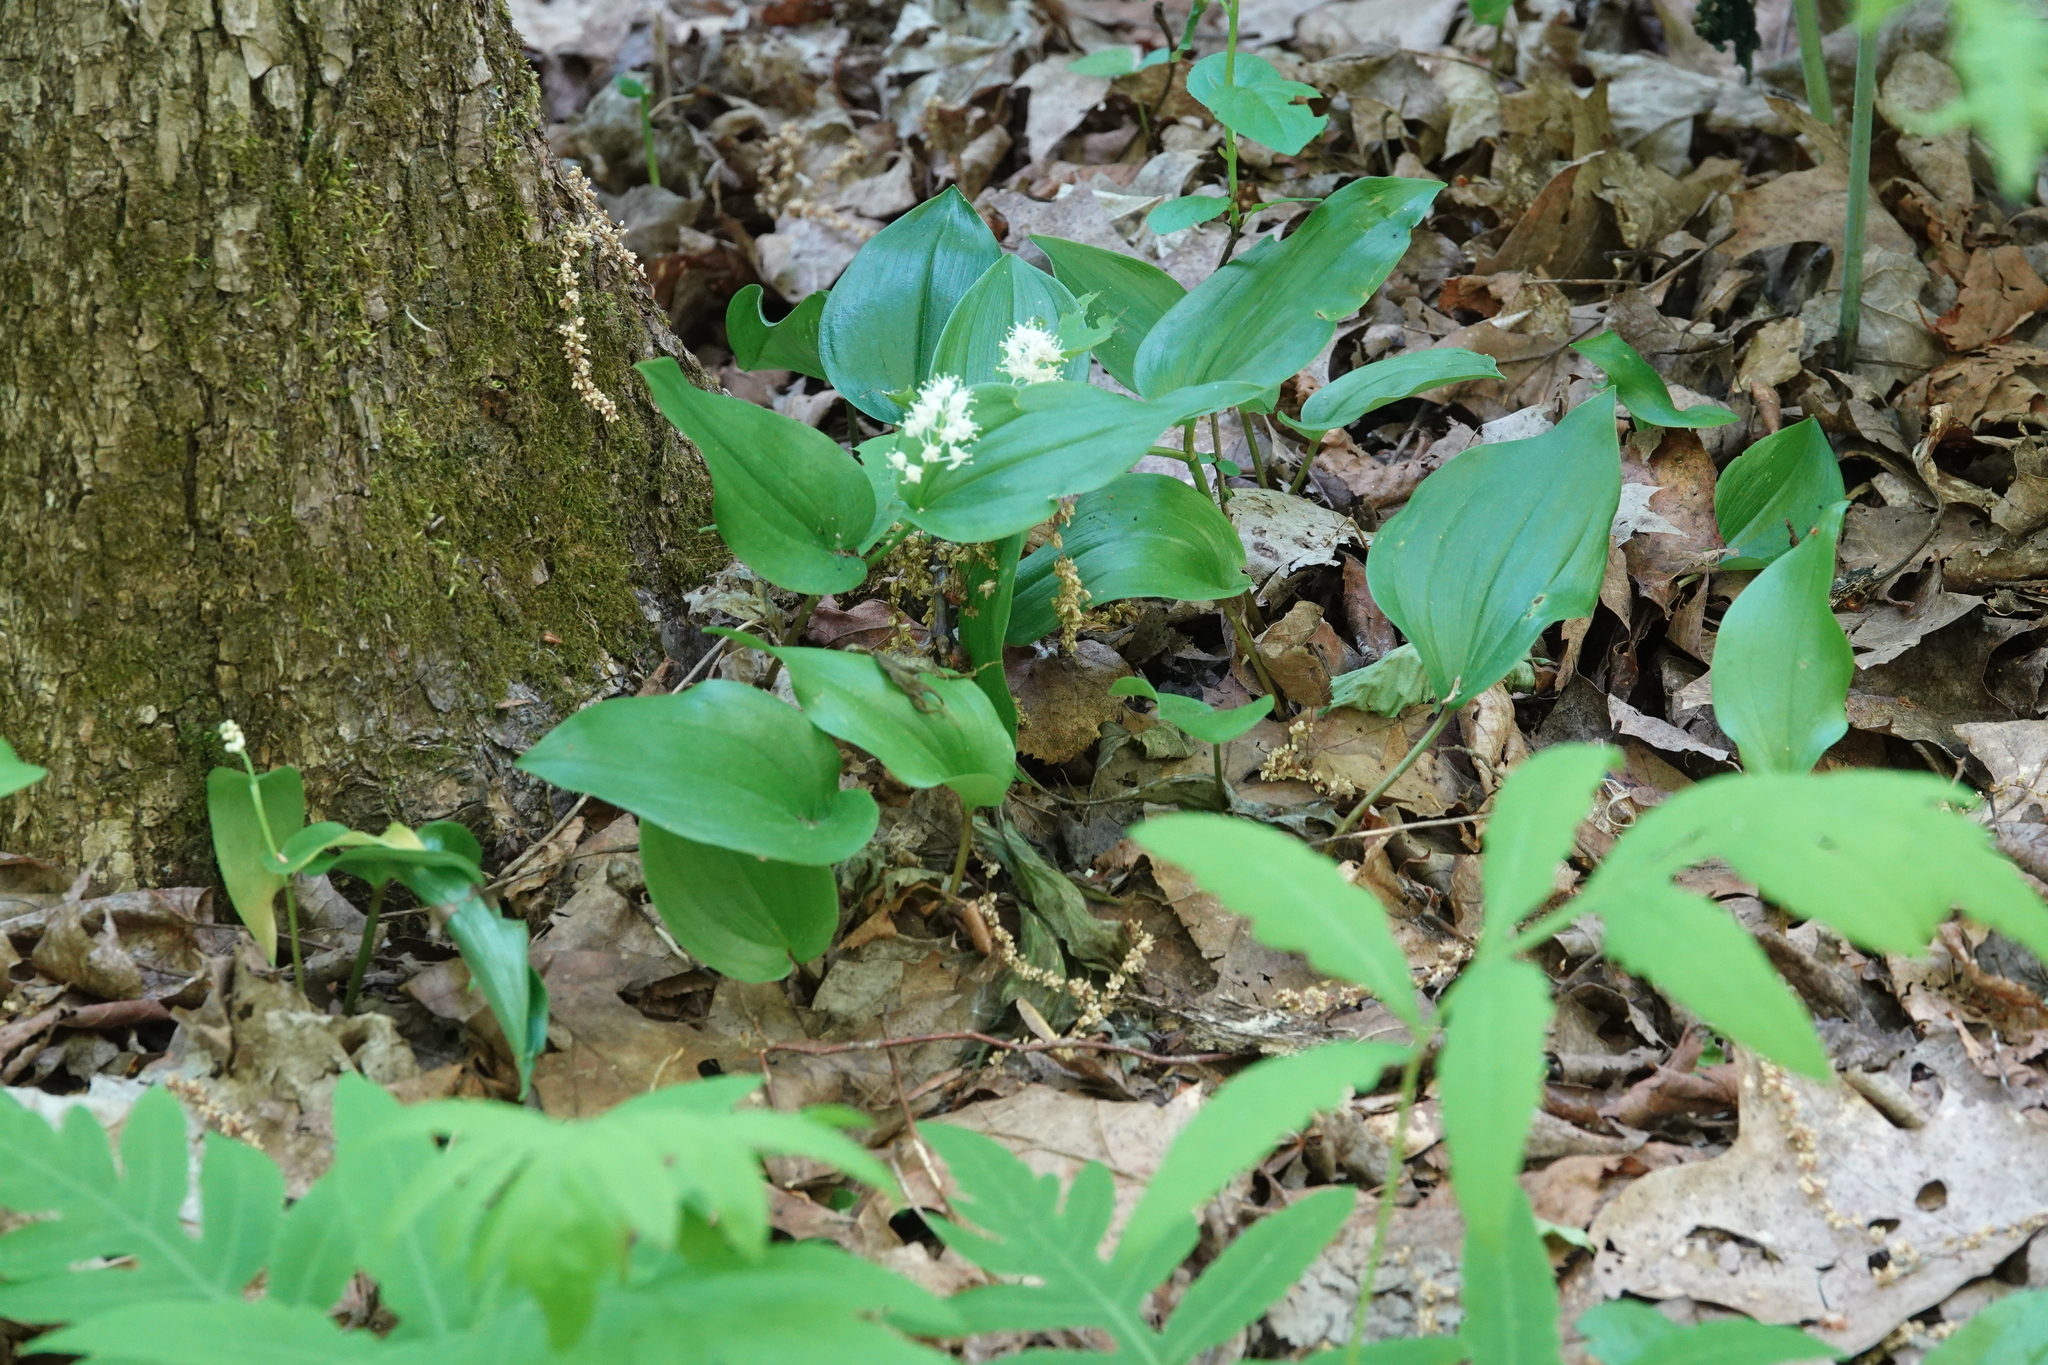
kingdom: Plantae
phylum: Tracheophyta
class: Liliopsida
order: Asparagales
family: Asparagaceae
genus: Maianthemum
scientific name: Maianthemum canadense
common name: False lily-of-the-valley
